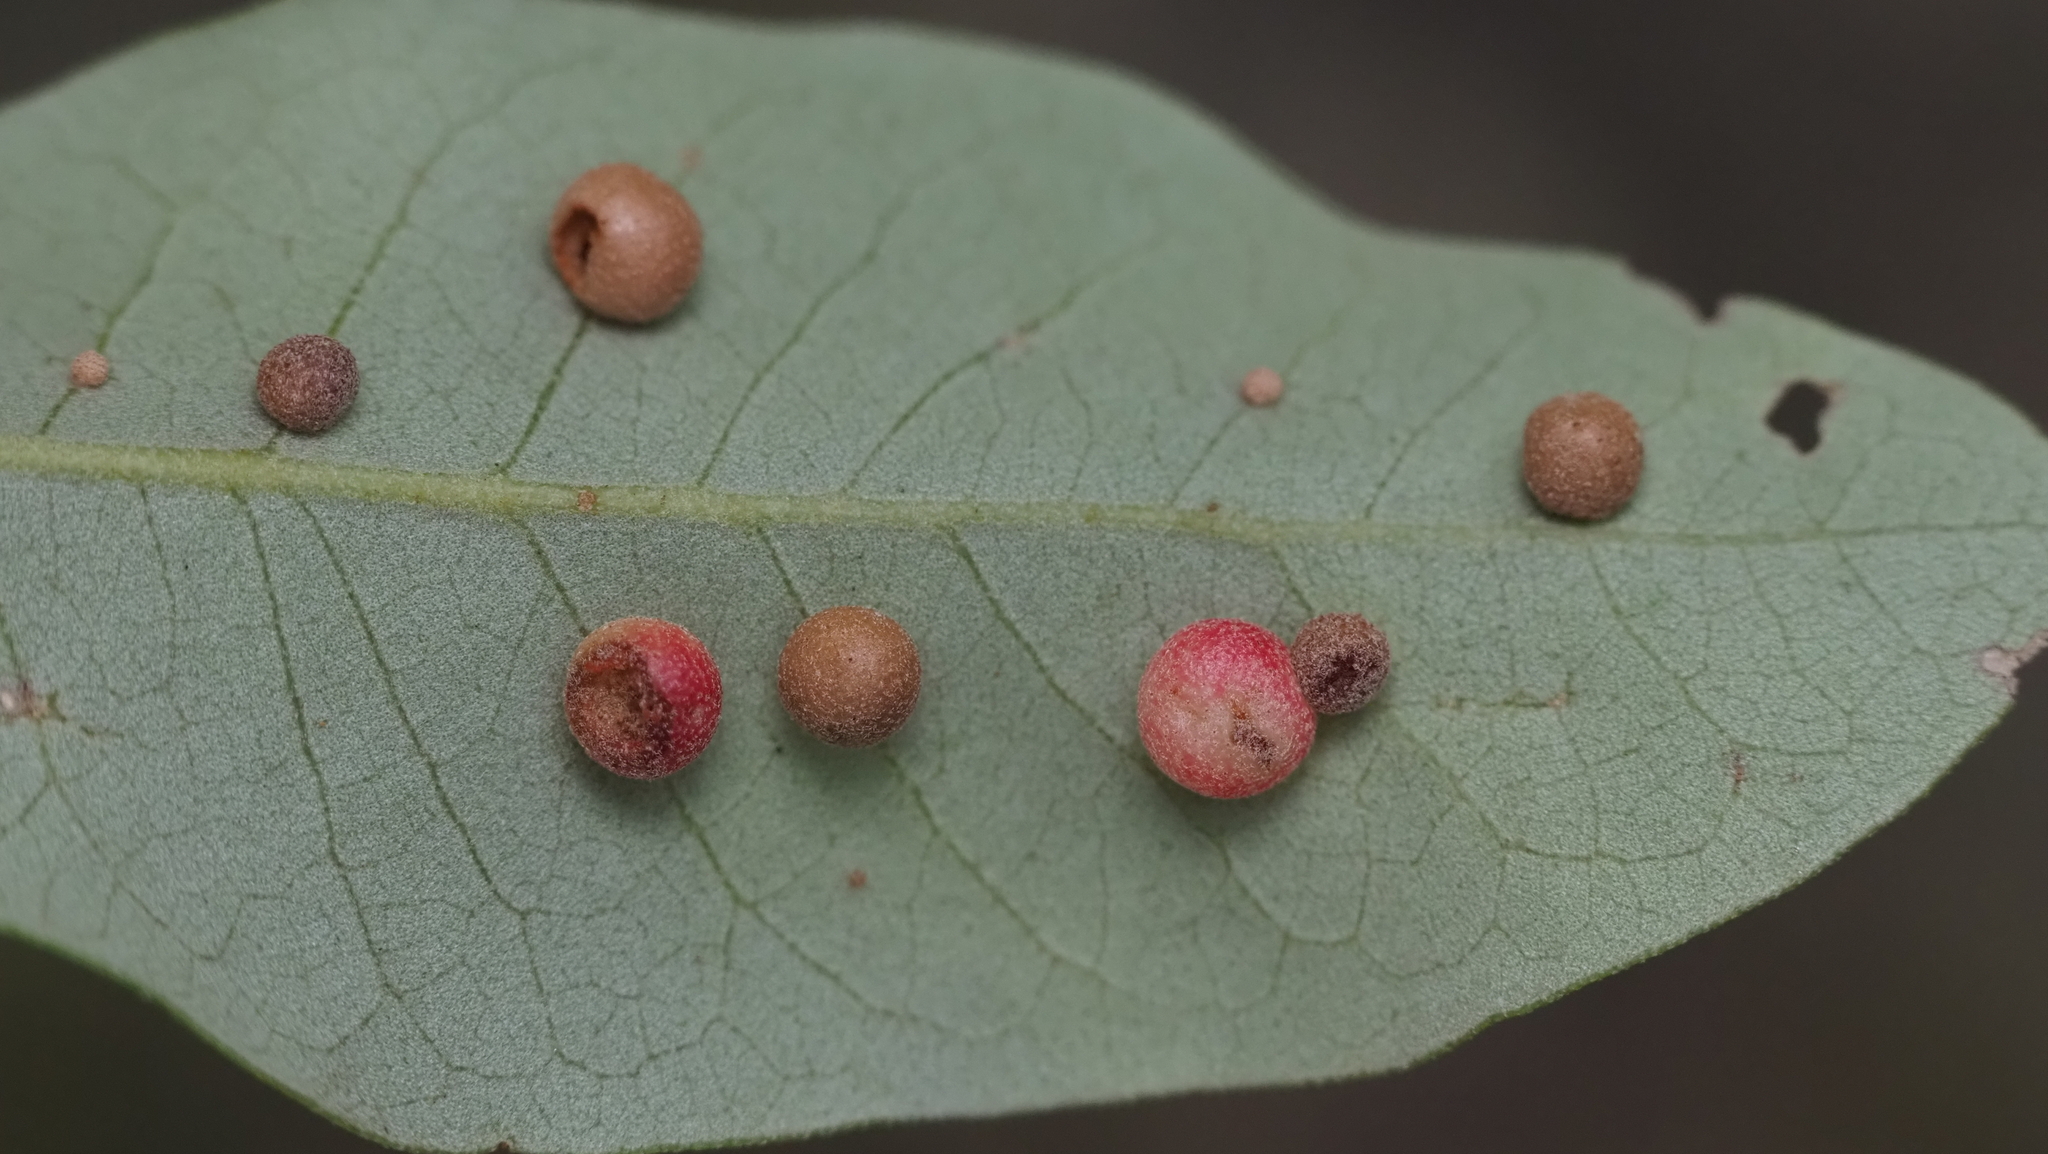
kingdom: Animalia
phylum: Arthropoda
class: Insecta
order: Hymenoptera
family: Cynipidae
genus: Belonocnema
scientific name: Belonocnema kinseyi
